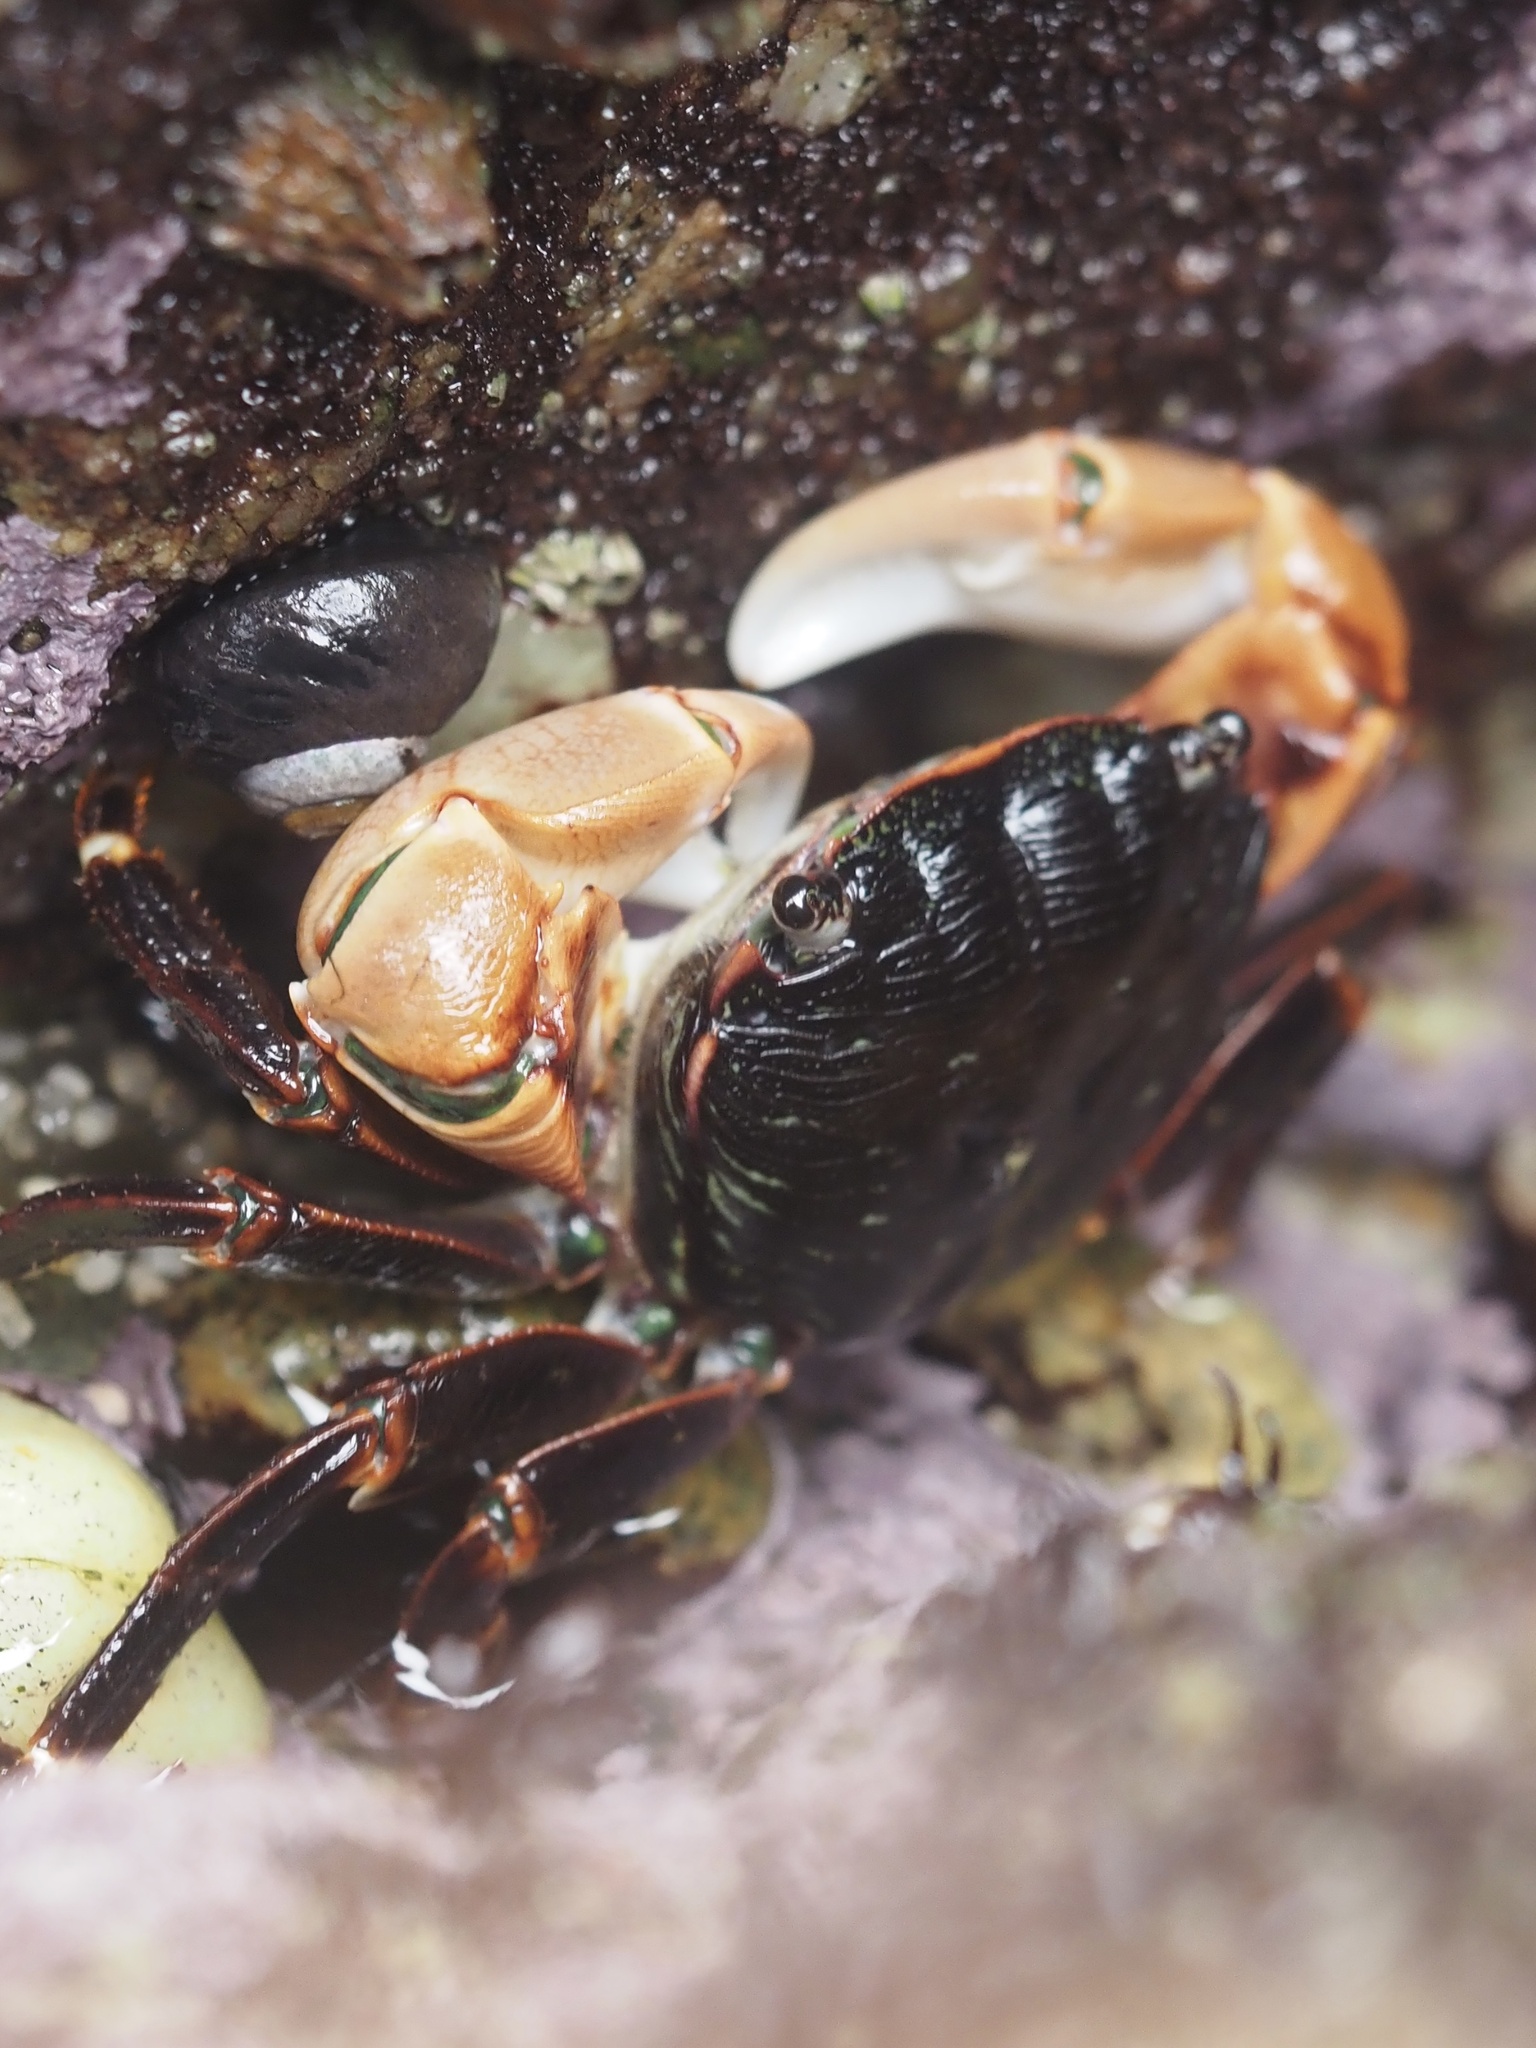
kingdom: Animalia
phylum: Arthropoda
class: Malacostraca
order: Decapoda
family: Grapsidae
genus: Pachygrapsus
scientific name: Pachygrapsus crassipes
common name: Striped shore crab
